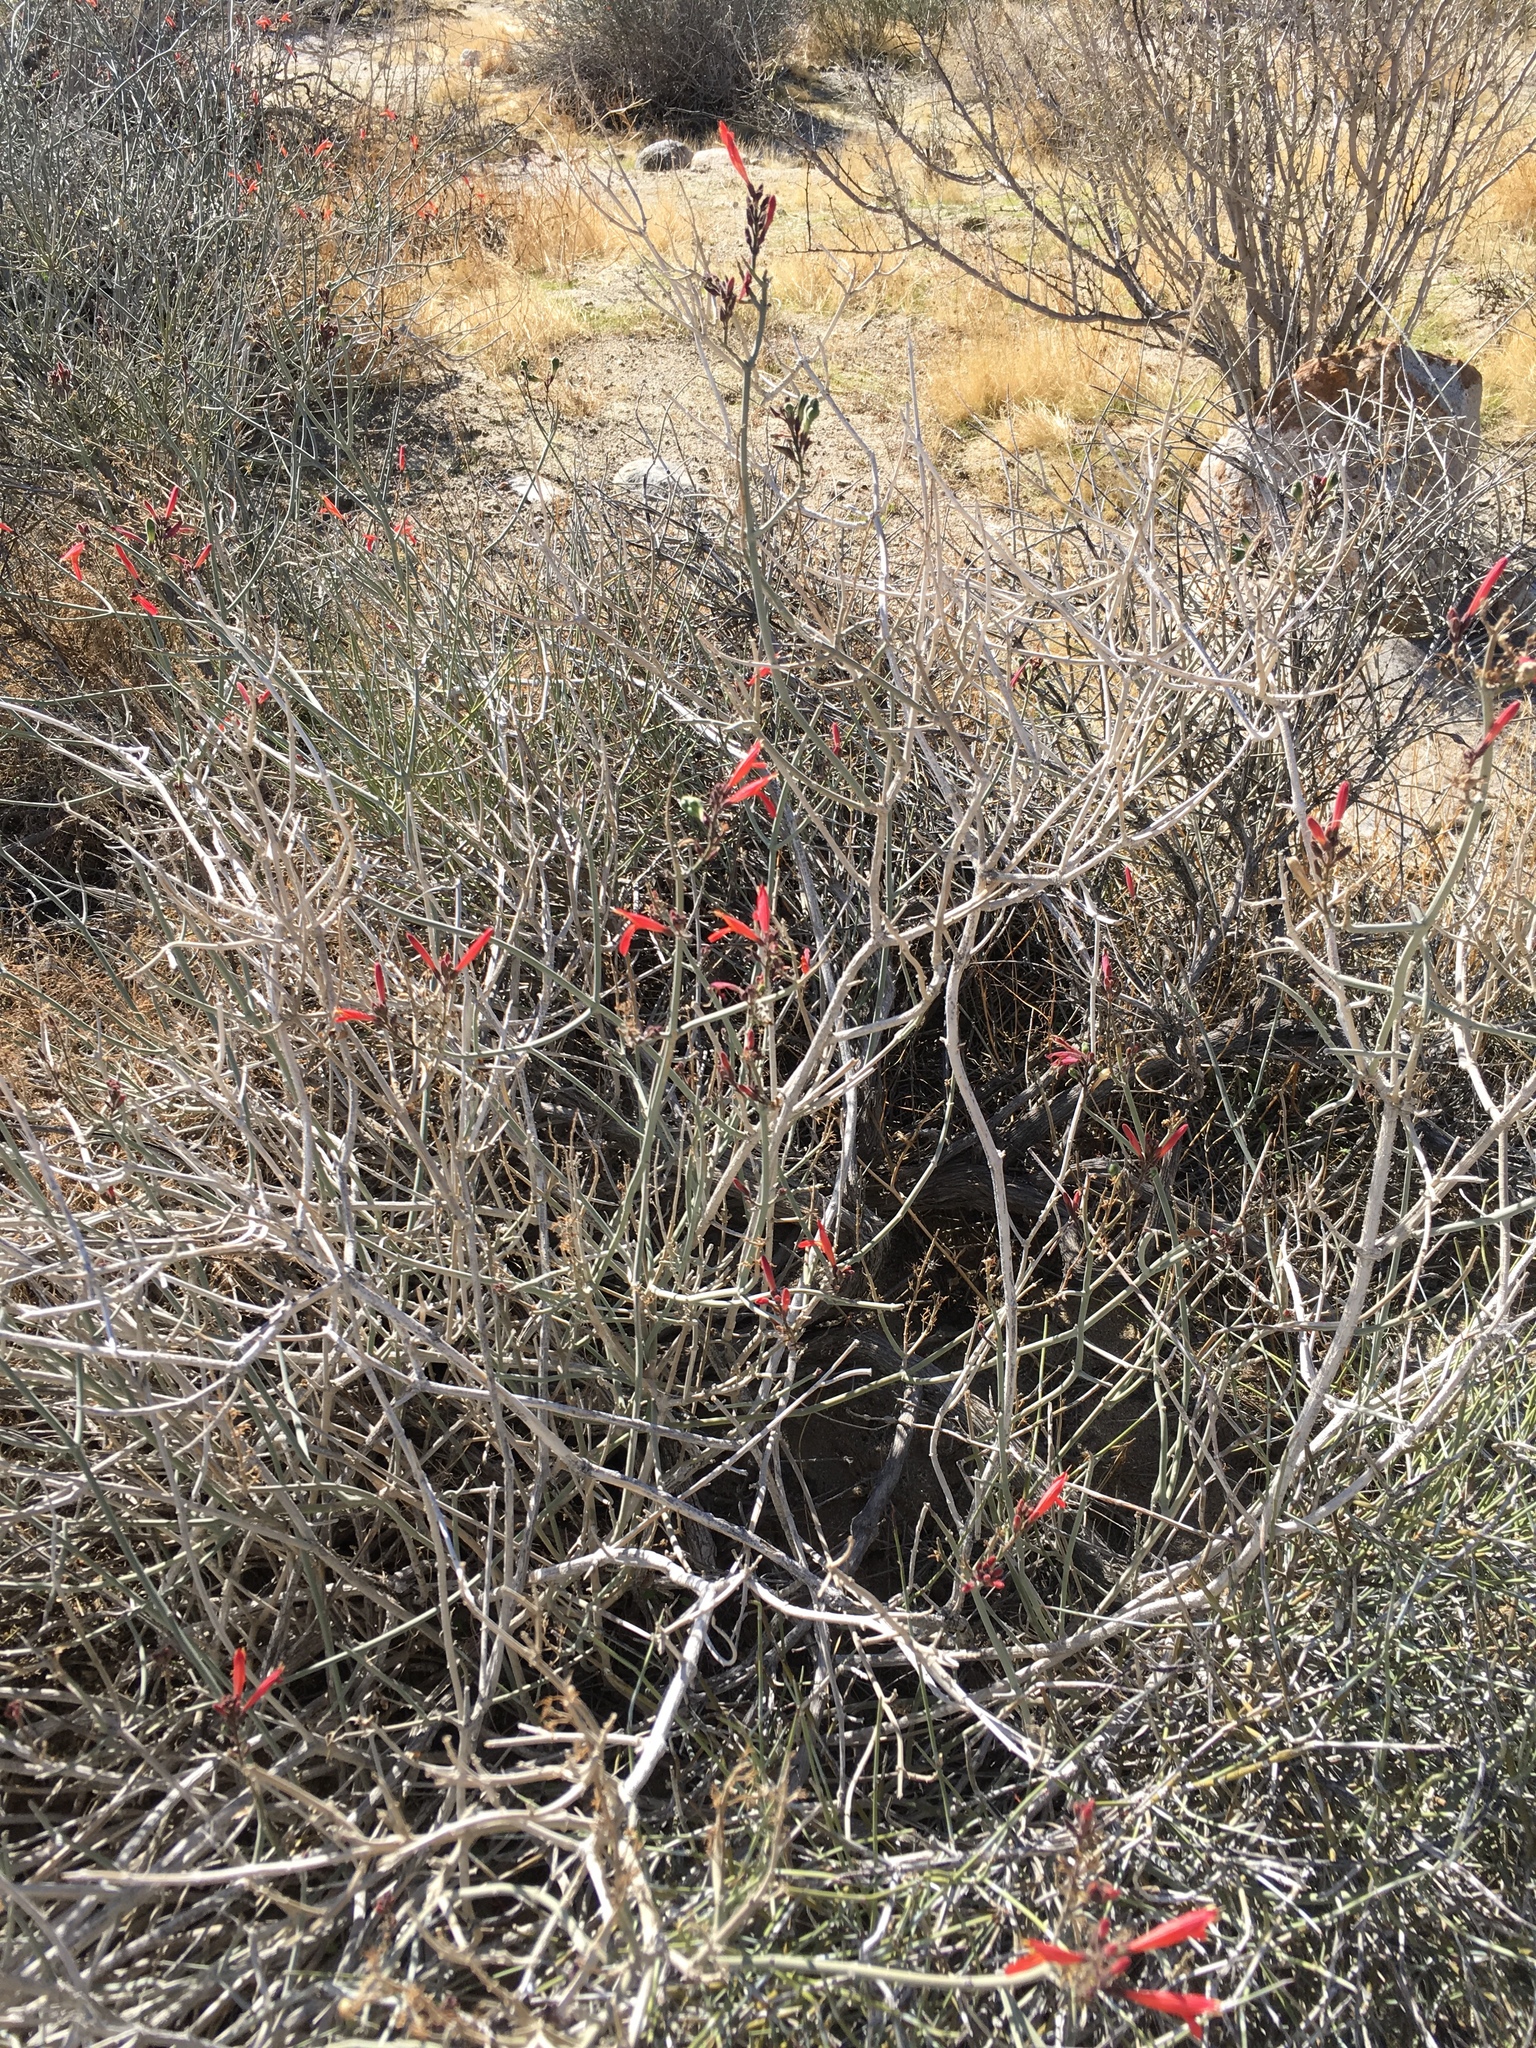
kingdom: Plantae
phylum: Tracheophyta
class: Magnoliopsida
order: Lamiales
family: Acanthaceae
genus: Justicia
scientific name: Justicia californica
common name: Chuparosa-honeysuckle
